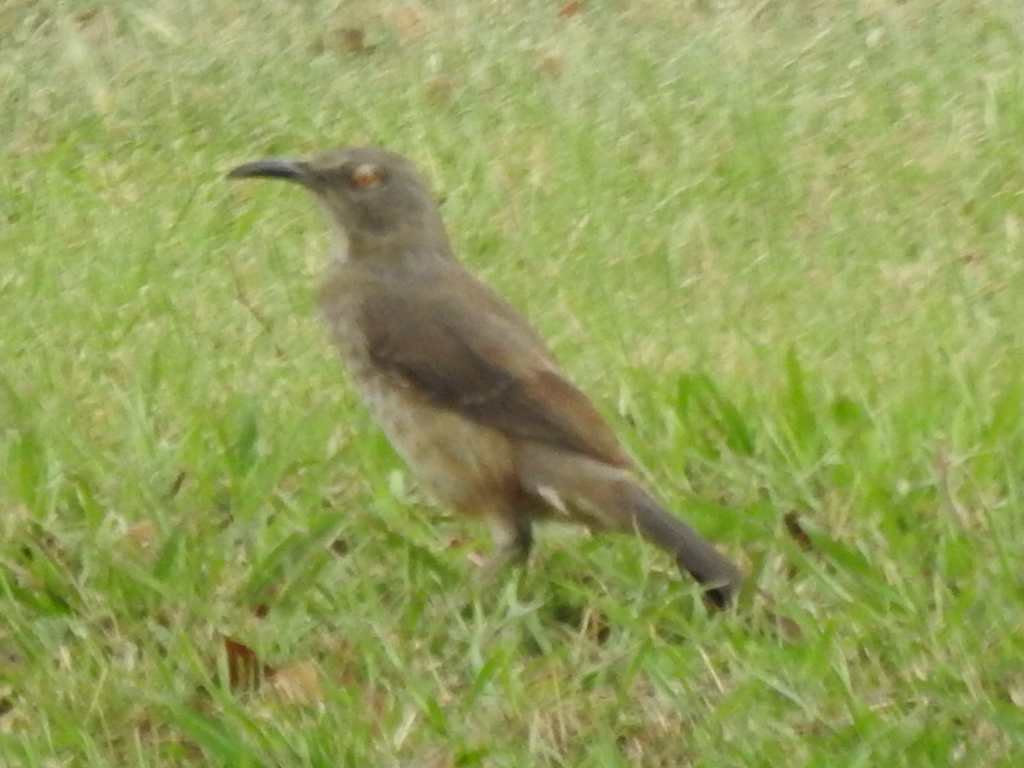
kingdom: Animalia
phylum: Chordata
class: Aves
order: Passeriformes
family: Mimidae
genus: Toxostoma
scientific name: Toxostoma curvirostre
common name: Curve-billed thrasher
